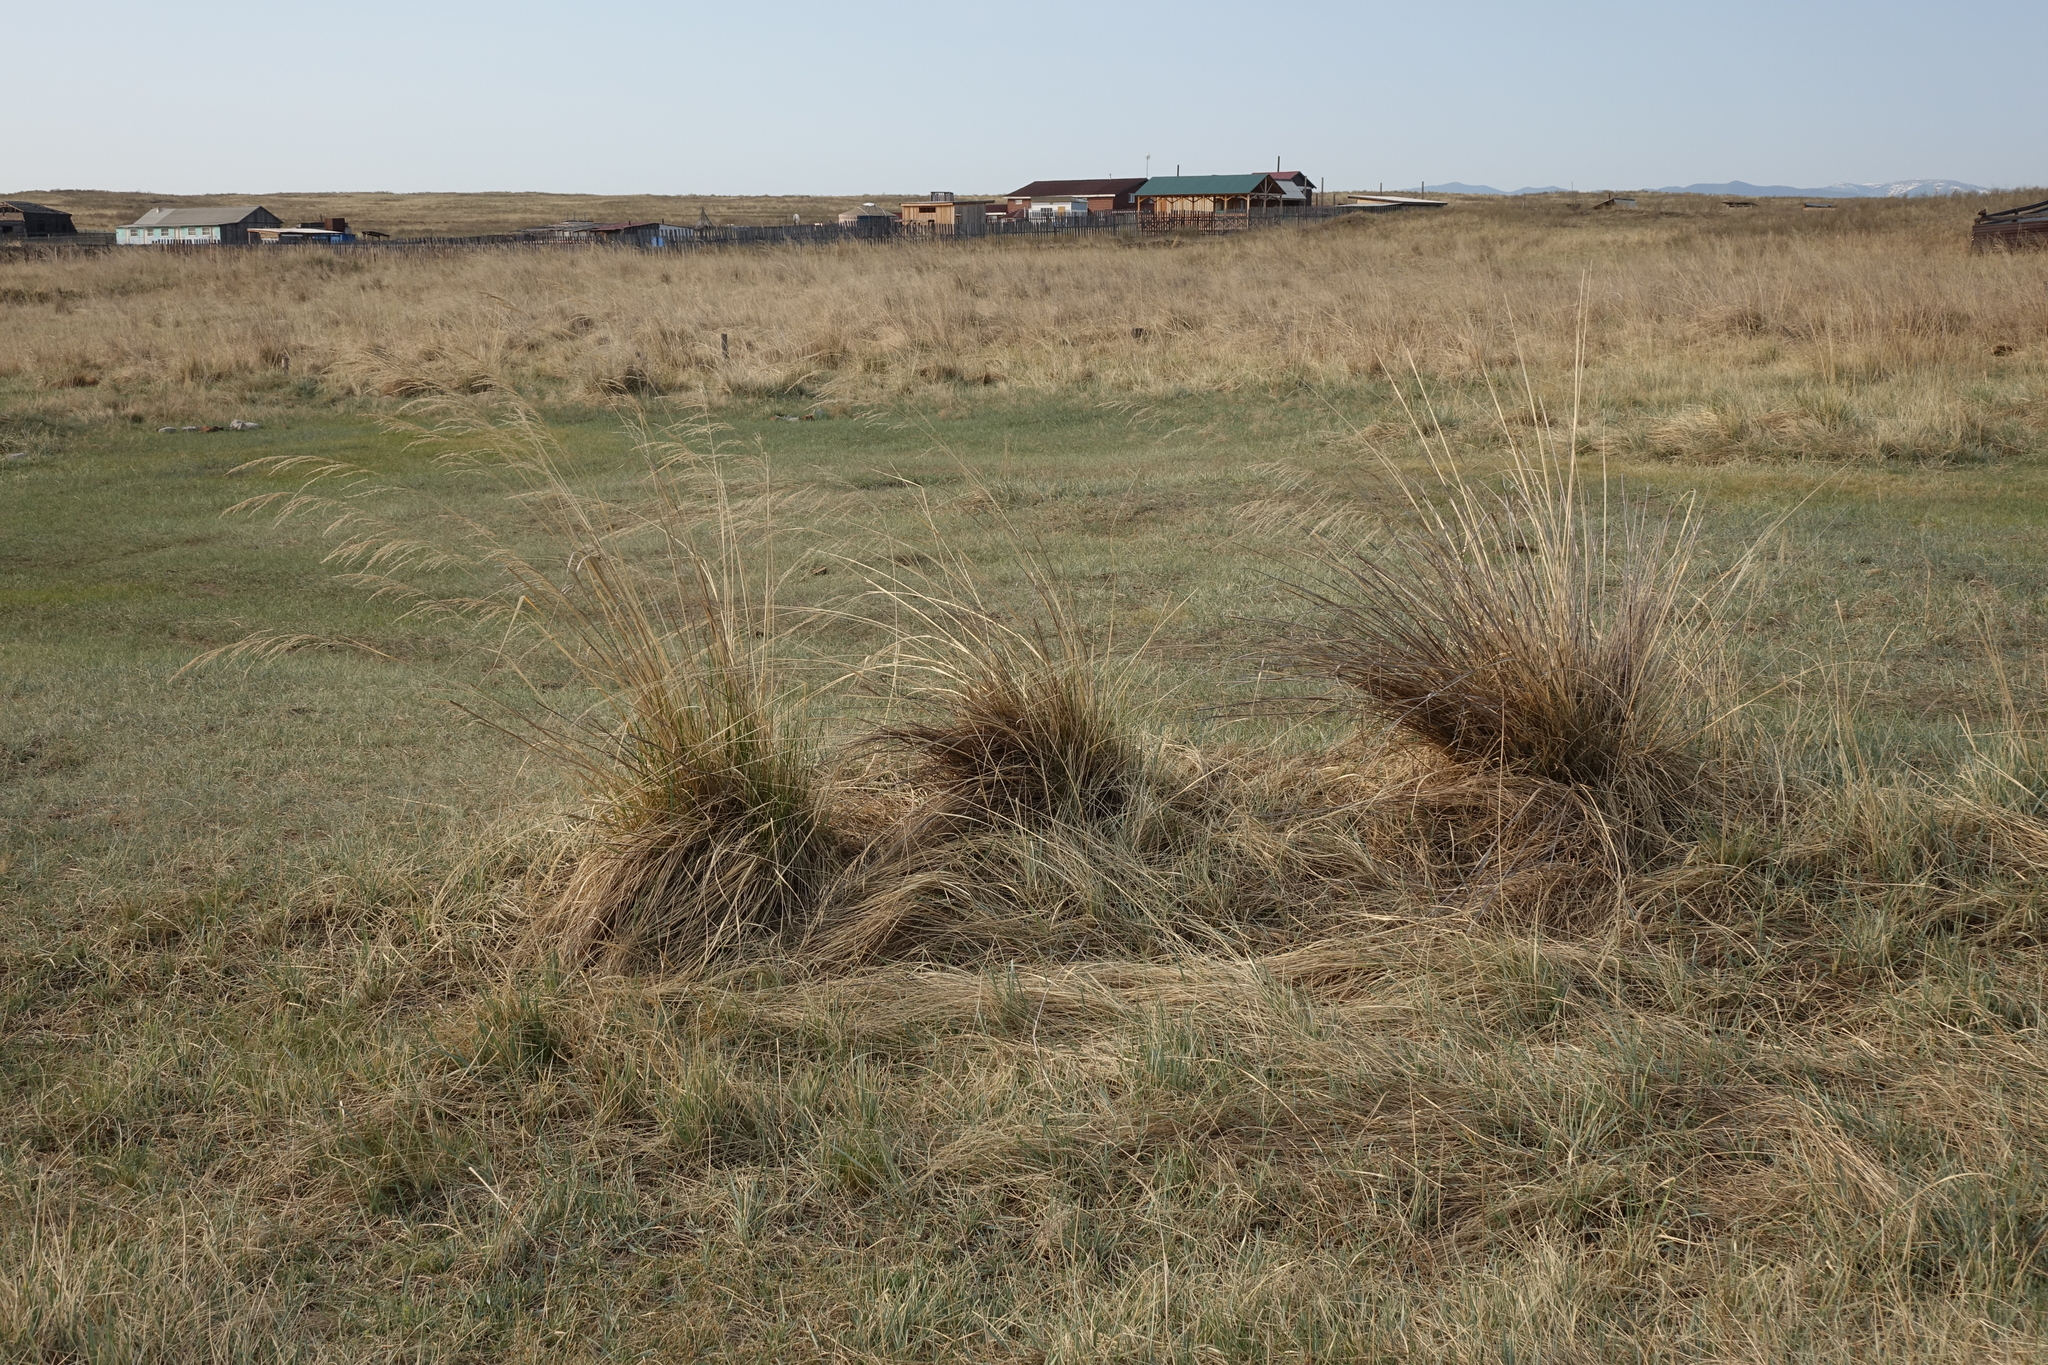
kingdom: Plantae
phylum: Tracheophyta
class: Liliopsida
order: Poales
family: Poaceae
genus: Neotrinia
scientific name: Neotrinia splendens
